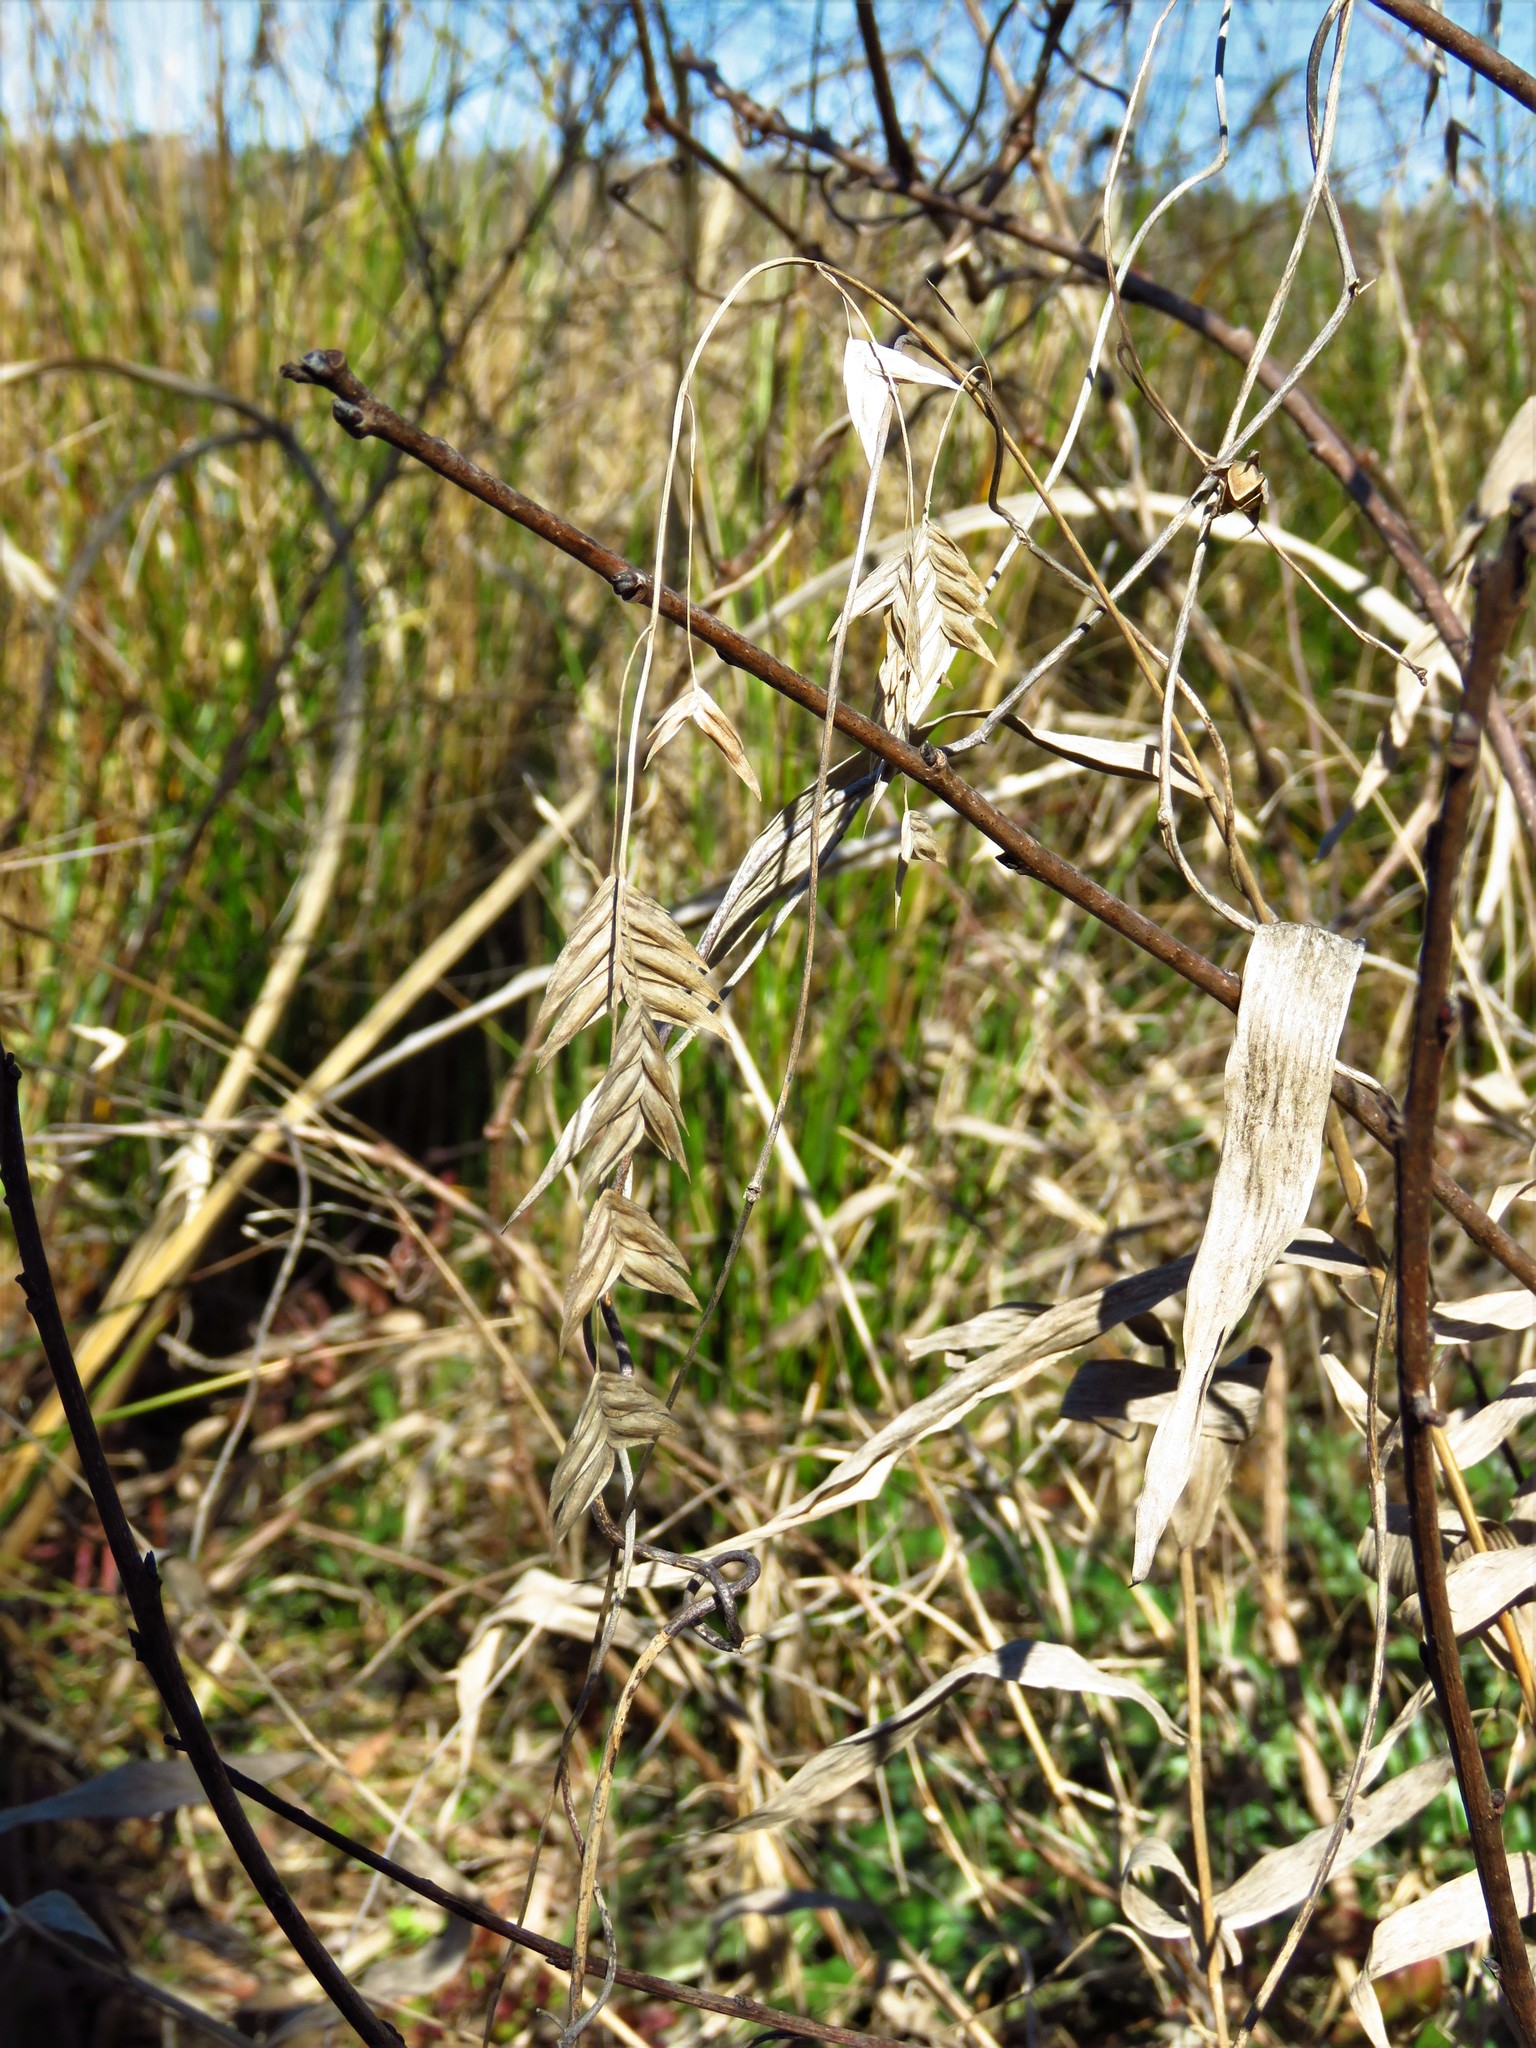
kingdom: Plantae
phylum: Tracheophyta
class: Liliopsida
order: Poales
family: Poaceae
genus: Chasmanthium
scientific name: Chasmanthium latifolium
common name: Broad-leaved chasmanthium
